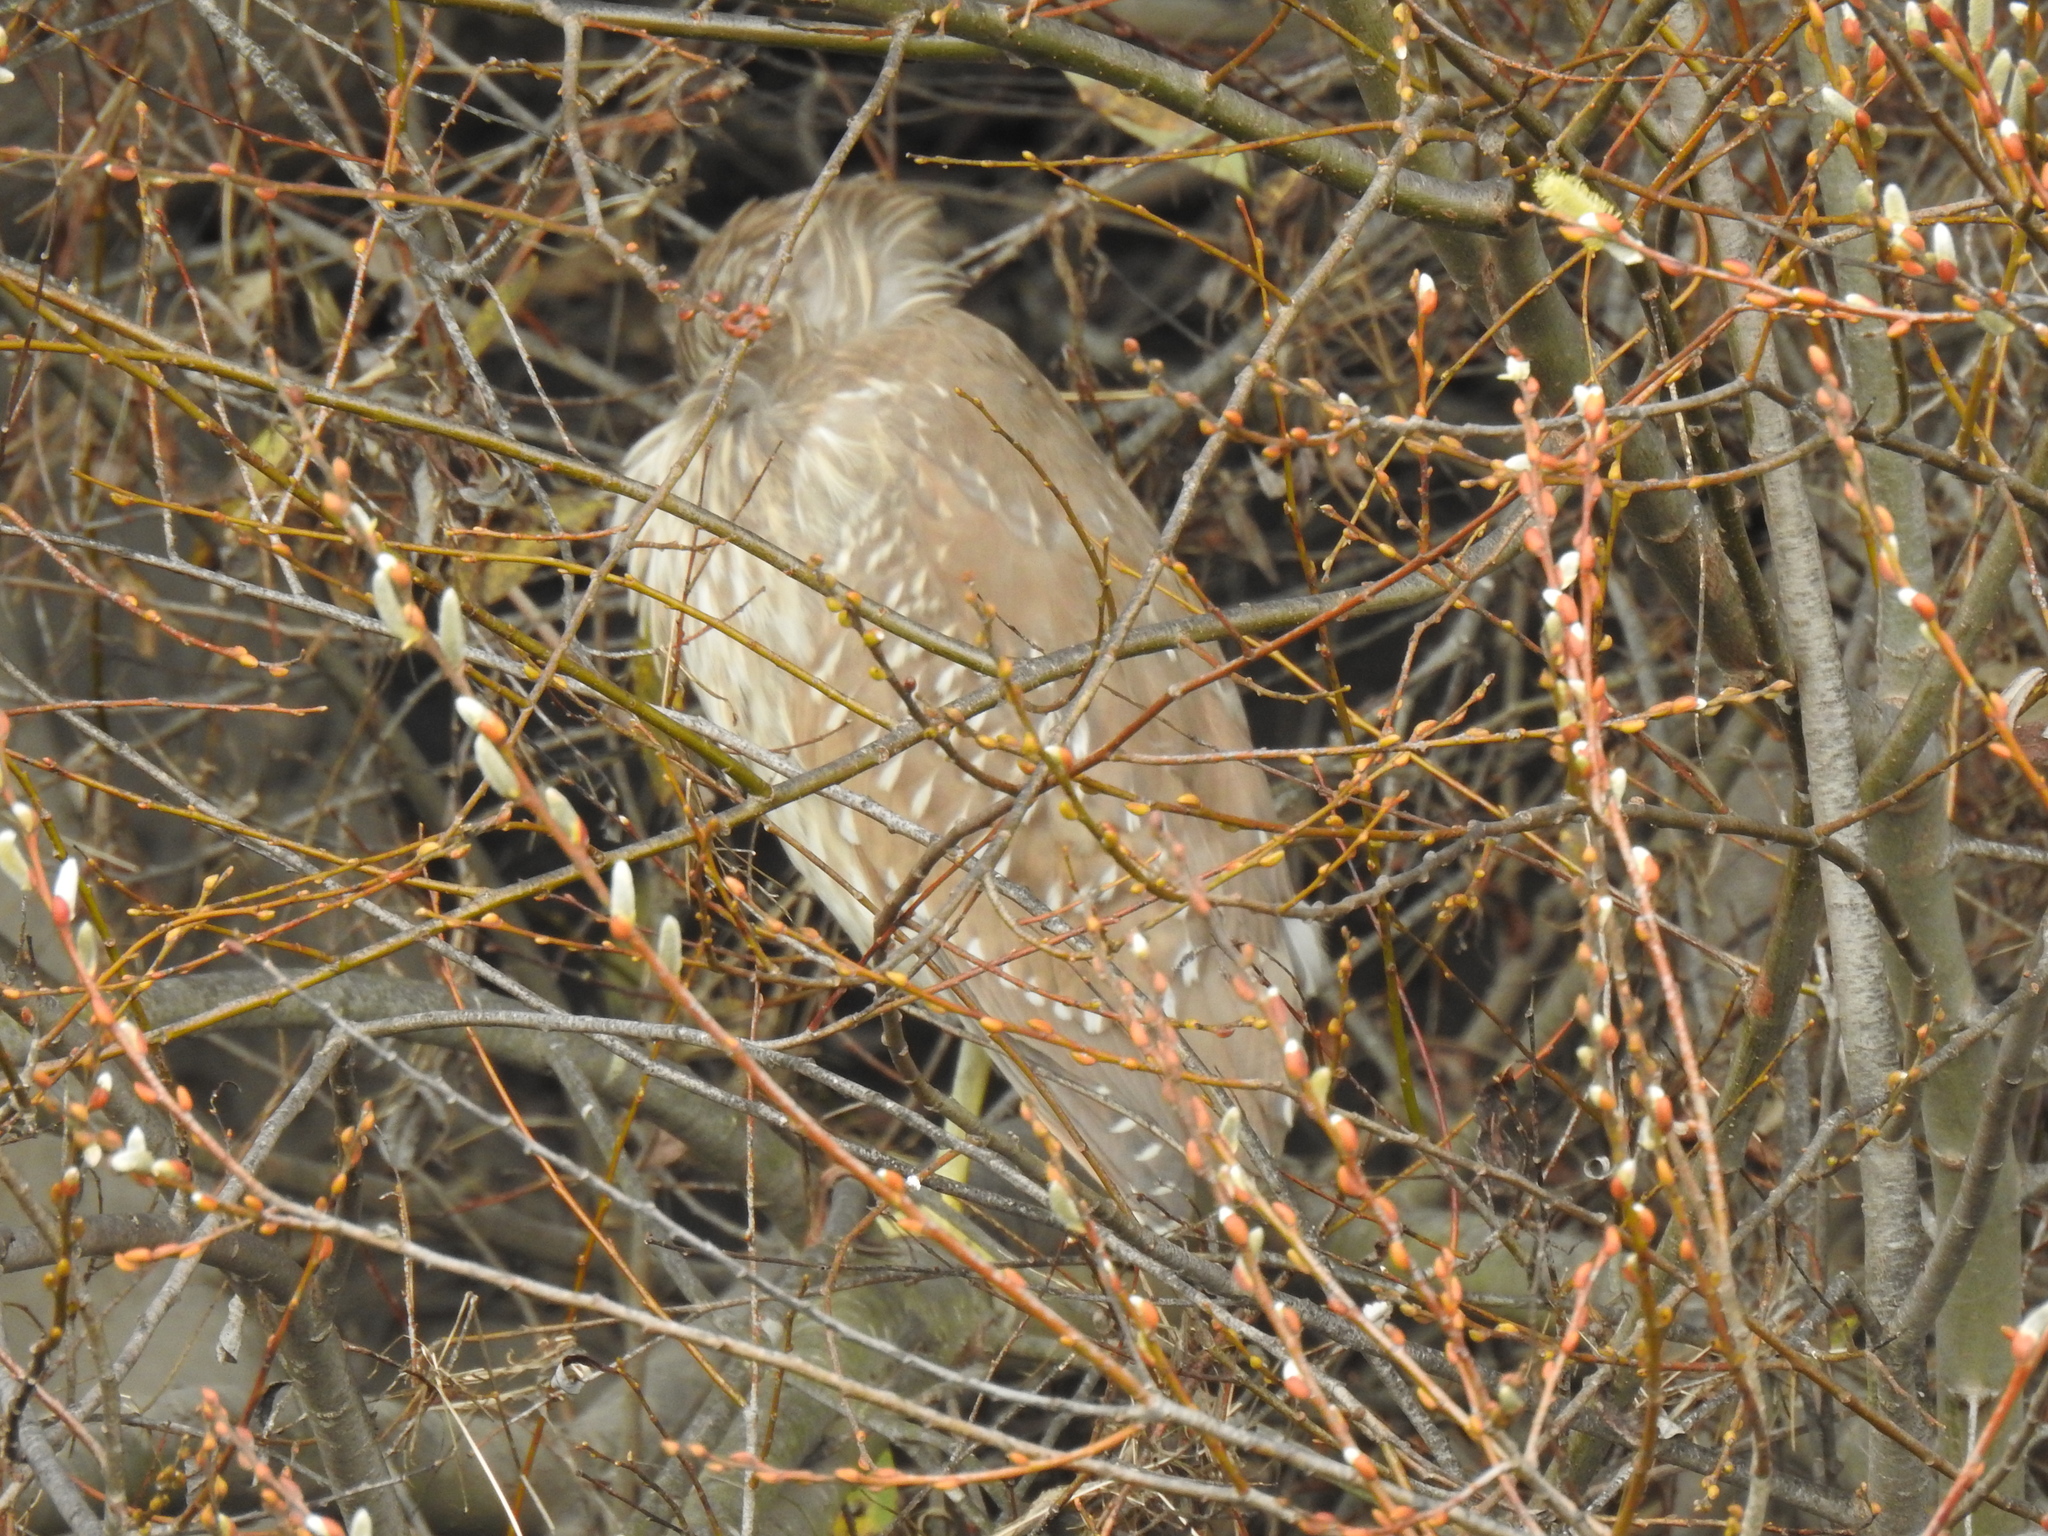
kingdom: Animalia
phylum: Chordata
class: Aves
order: Pelecaniformes
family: Ardeidae
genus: Nycticorax
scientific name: Nycticorax nycticorax
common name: Black-crowned night heron
